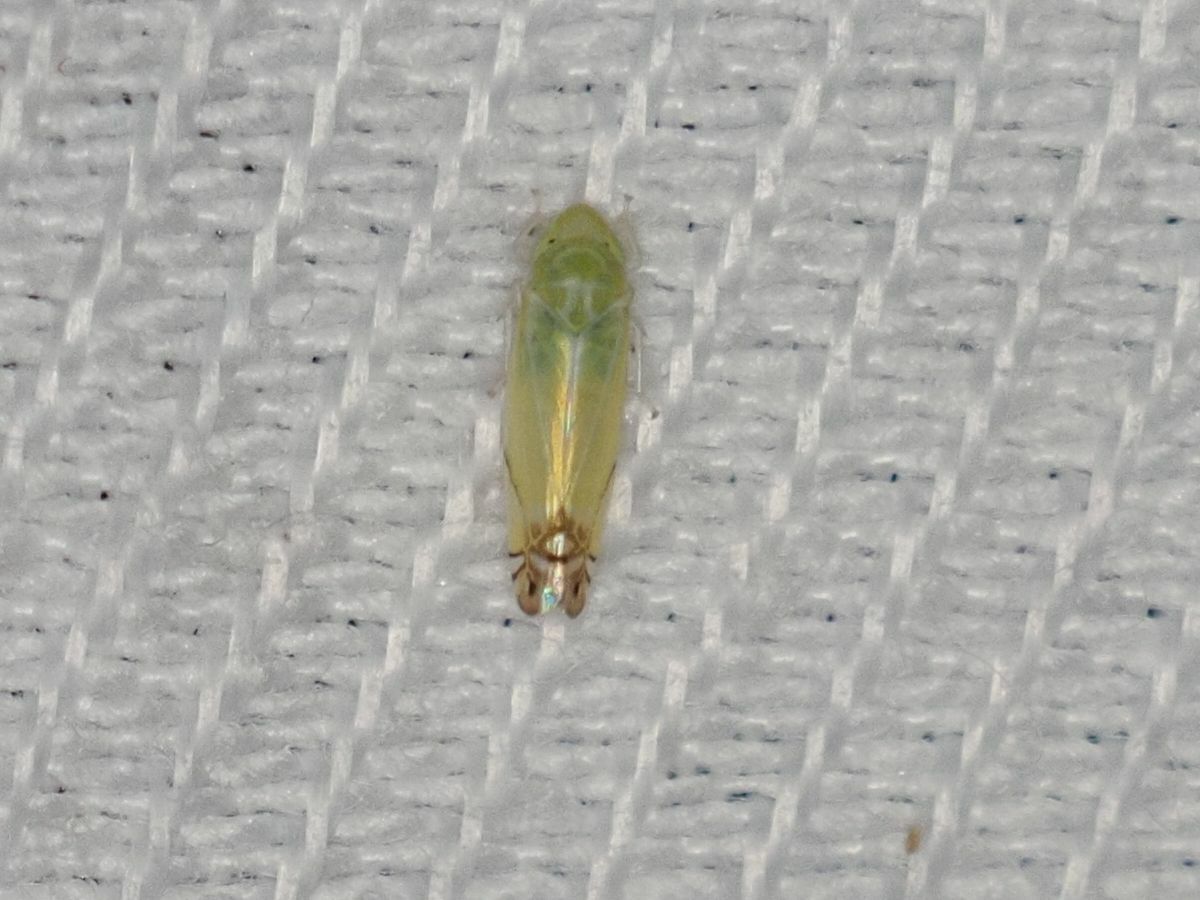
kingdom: Animalia
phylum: Arthropoda
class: Insecta
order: Hemiptera
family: Cicadellidae
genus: Zyginella
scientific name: Zyginella pulchra
